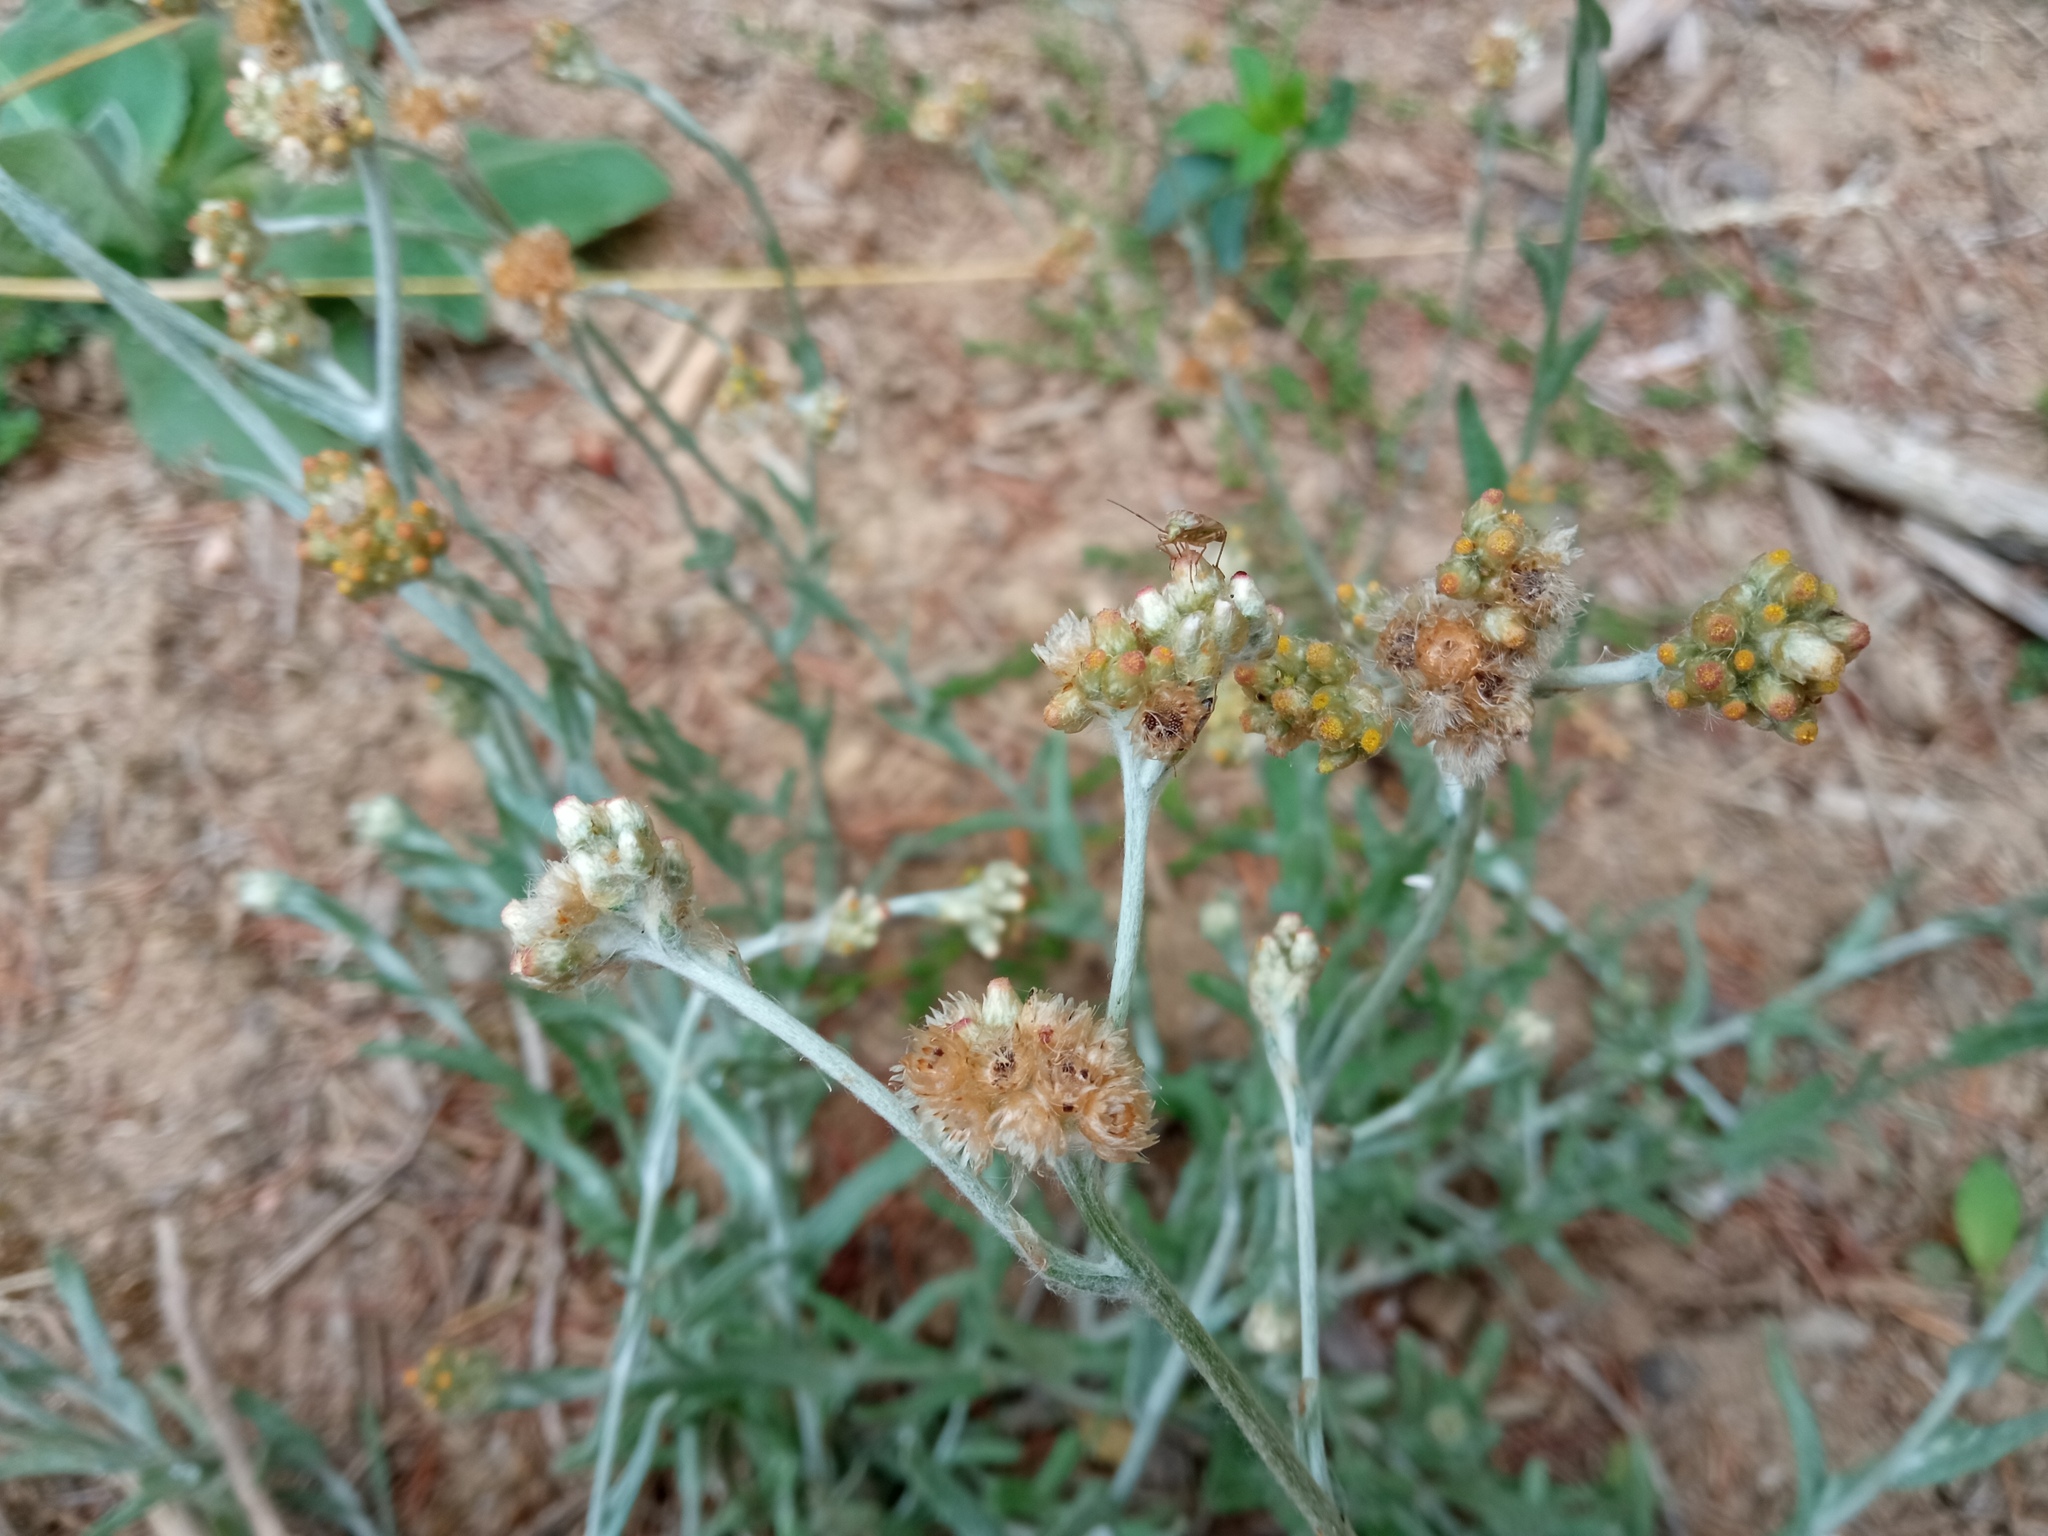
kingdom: Plantae
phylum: Tracheophyta
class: Magnoliopsida
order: Asterales
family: Asteraceae
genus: Helichrysum
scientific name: Helichrysum luteoalbum
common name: Daisy
